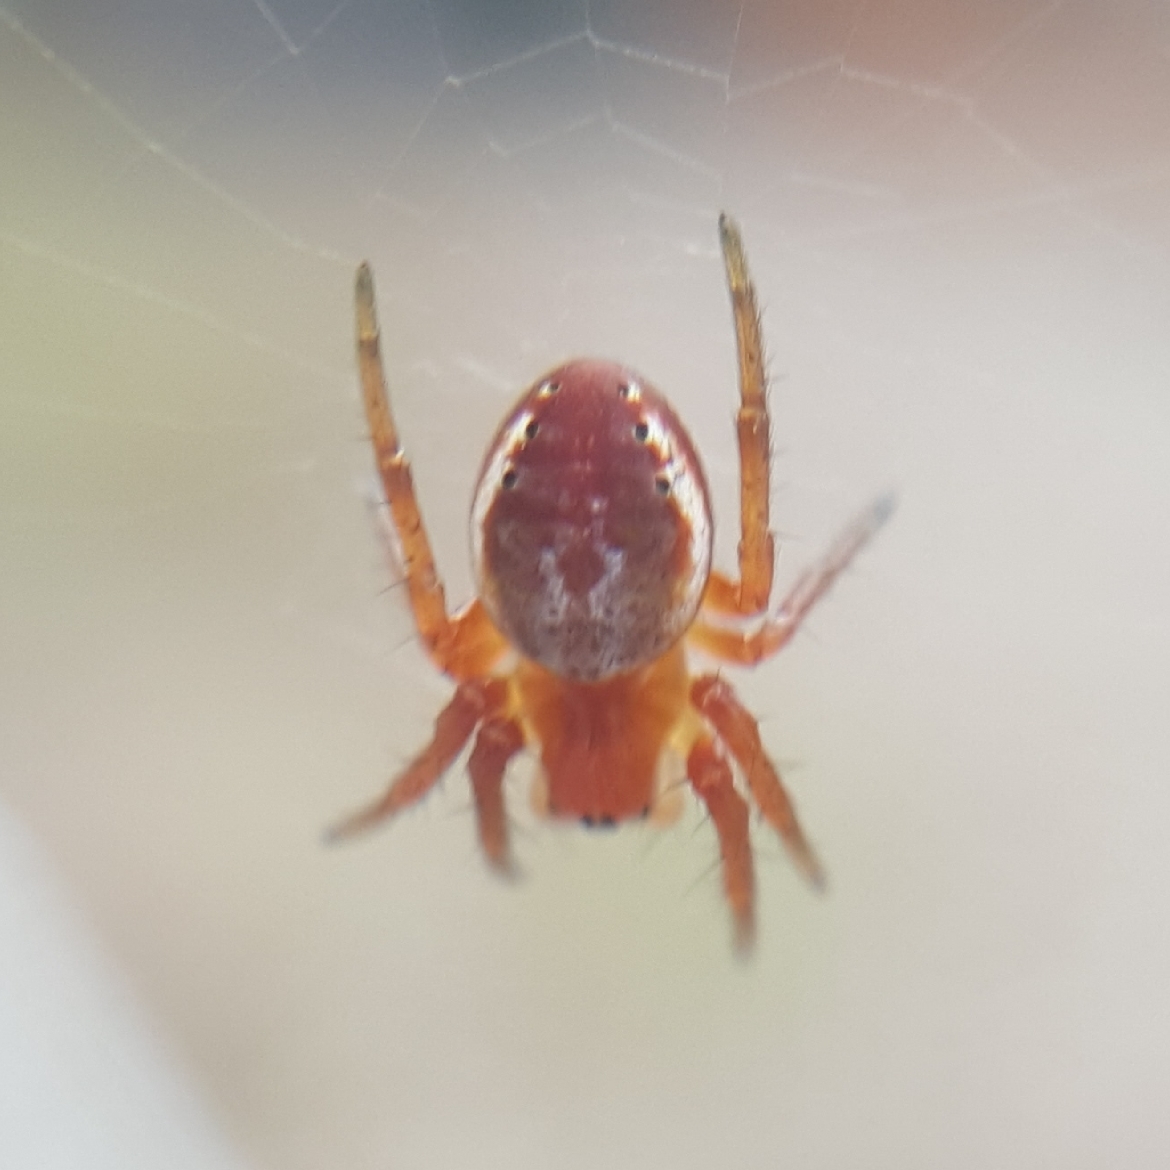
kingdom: Animalia
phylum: Arthropoda
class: Arachnida
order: Araneae
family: Araneidae
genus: Araniella
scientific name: Araniella displicata
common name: Sixspotted orb weaver
